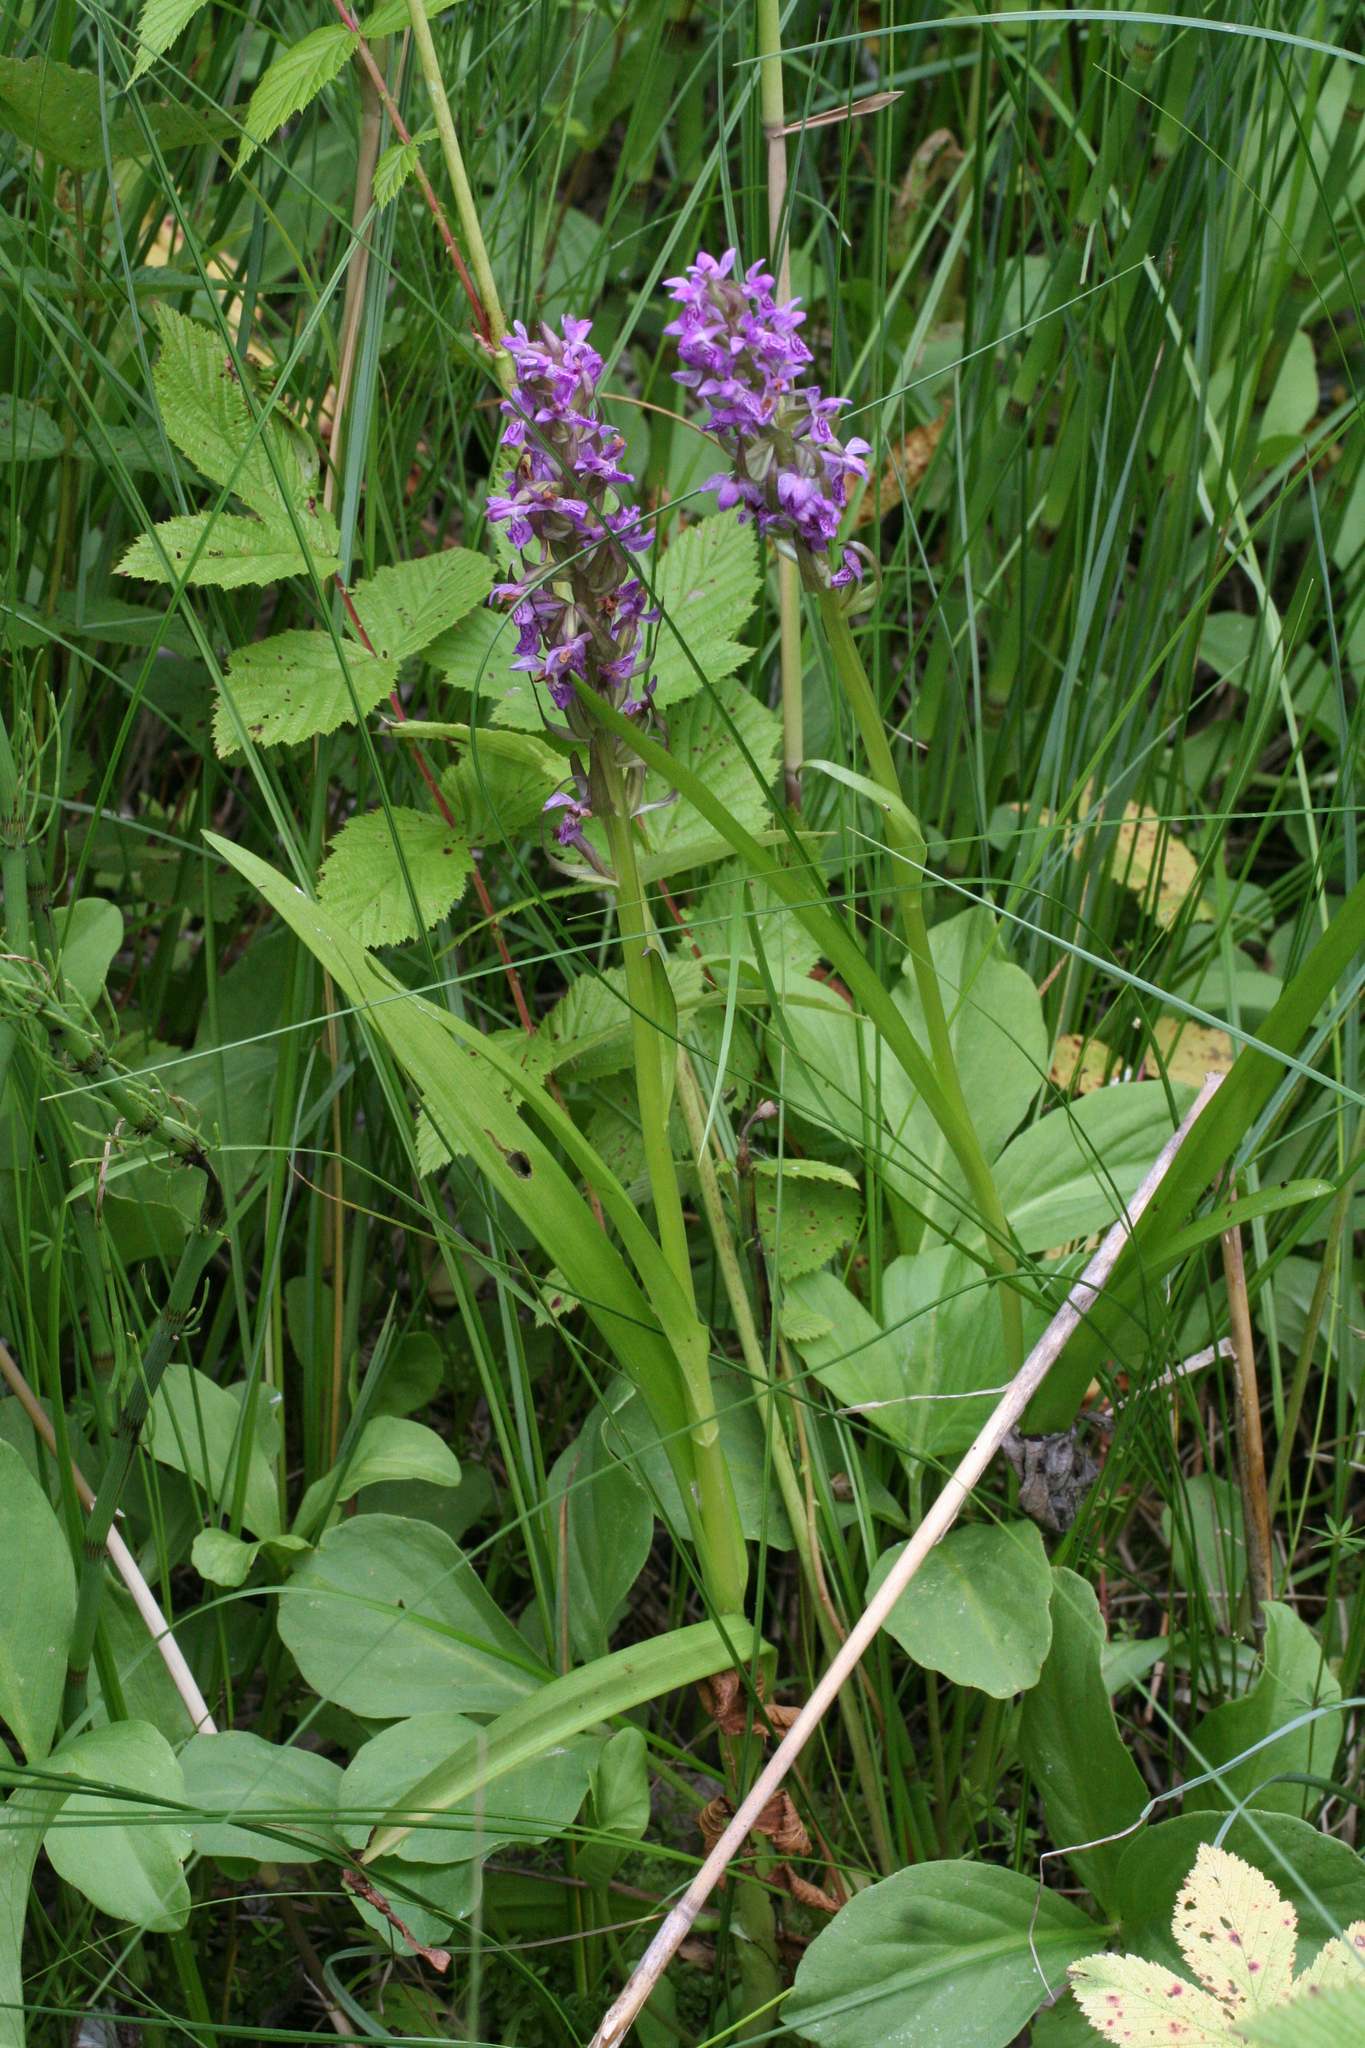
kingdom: Plantae
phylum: Tracheophyta
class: Liliopsida
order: Asparagales
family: Orchidaceae
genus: Dactylorhiza
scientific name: Dactylorhiza incarnata
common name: Early marsh-orchid
